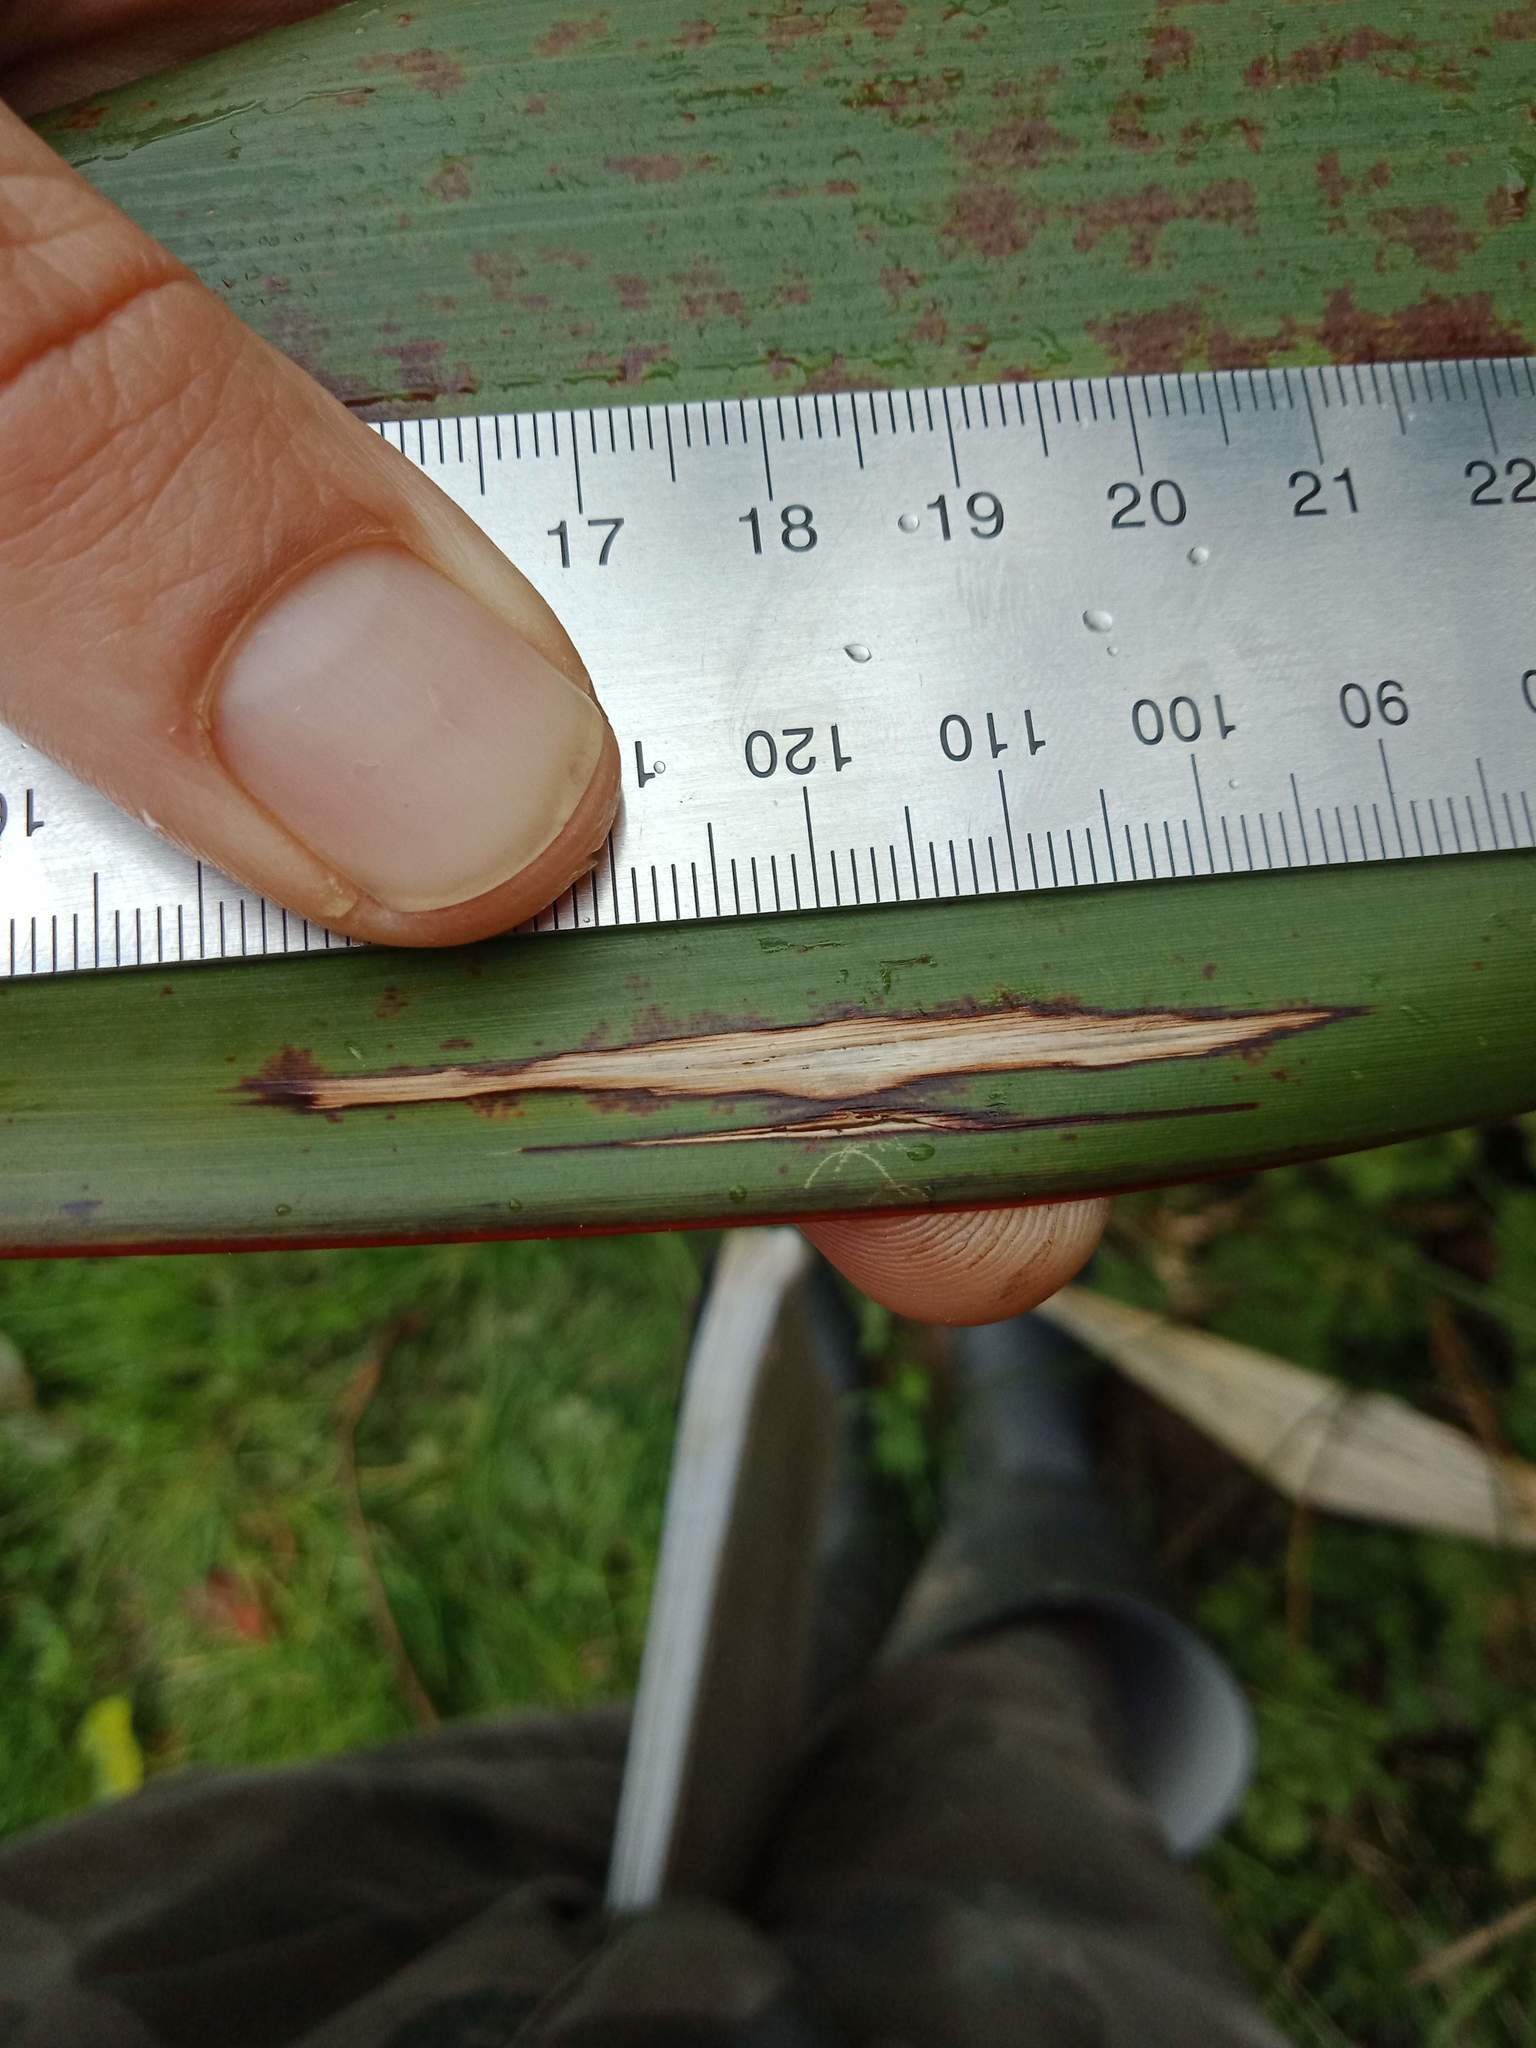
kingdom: Animalia
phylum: Arthropoda
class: Insecta
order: Lepidoptera
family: Geometridae
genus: Orthoclydon
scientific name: Orthoclydon praefectata
